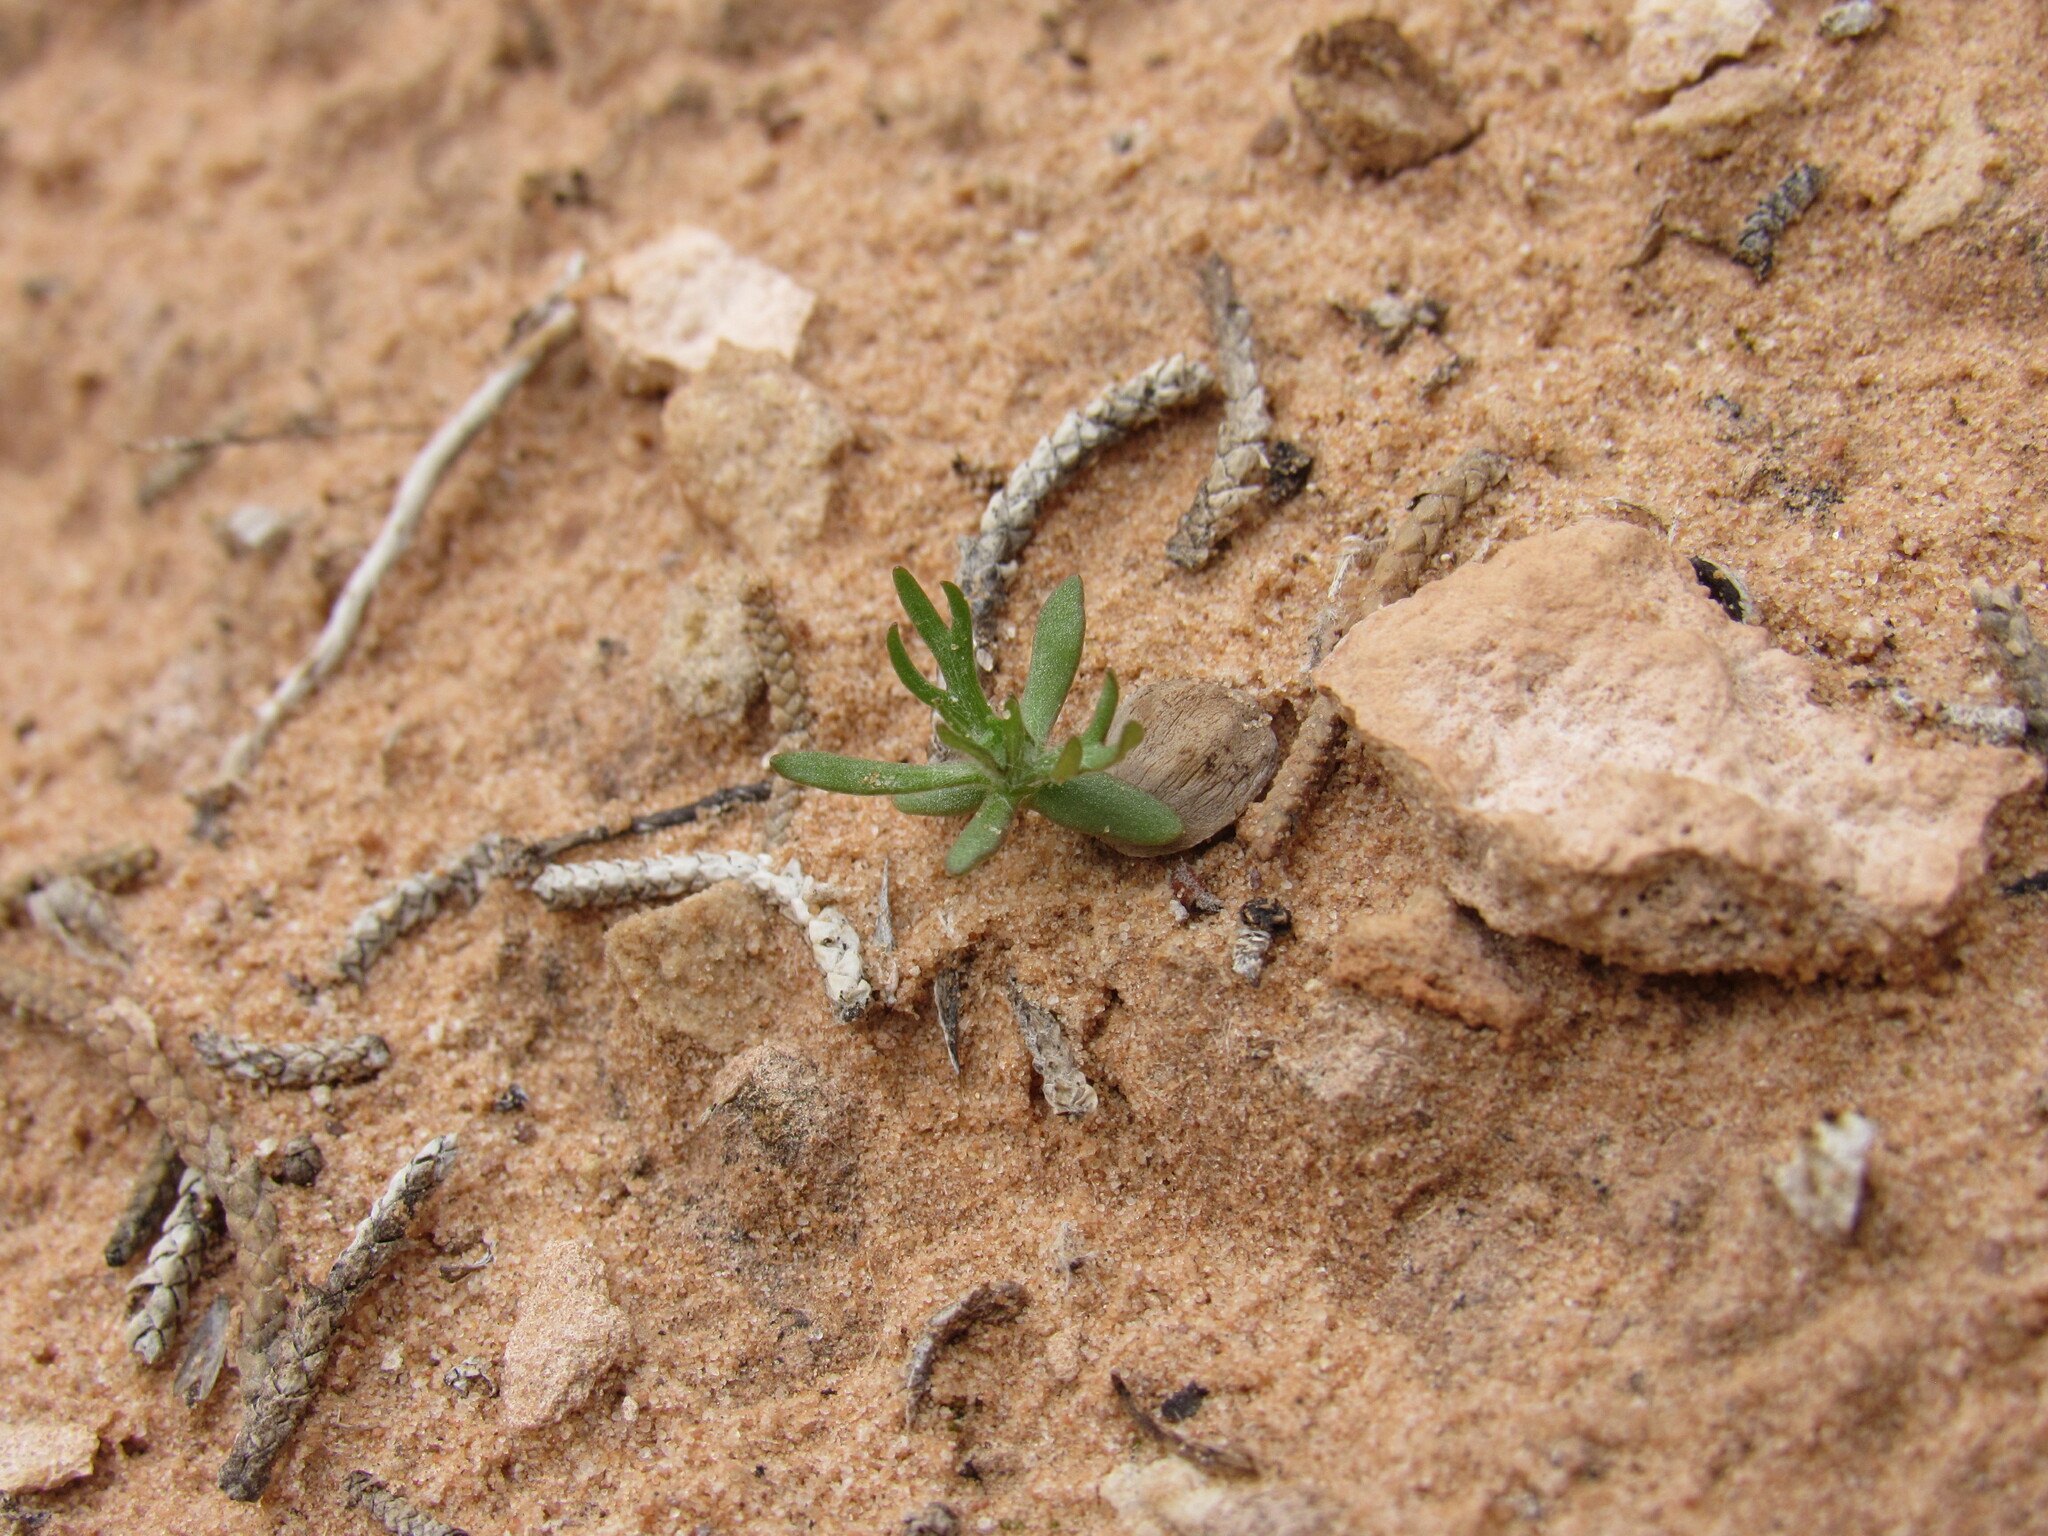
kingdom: Plantae
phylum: Tracheophyta
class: Magnoliopsida
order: Ranunculales
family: Ranunculaceae
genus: Ceratocephala
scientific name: Ceratocephala orthoceras
